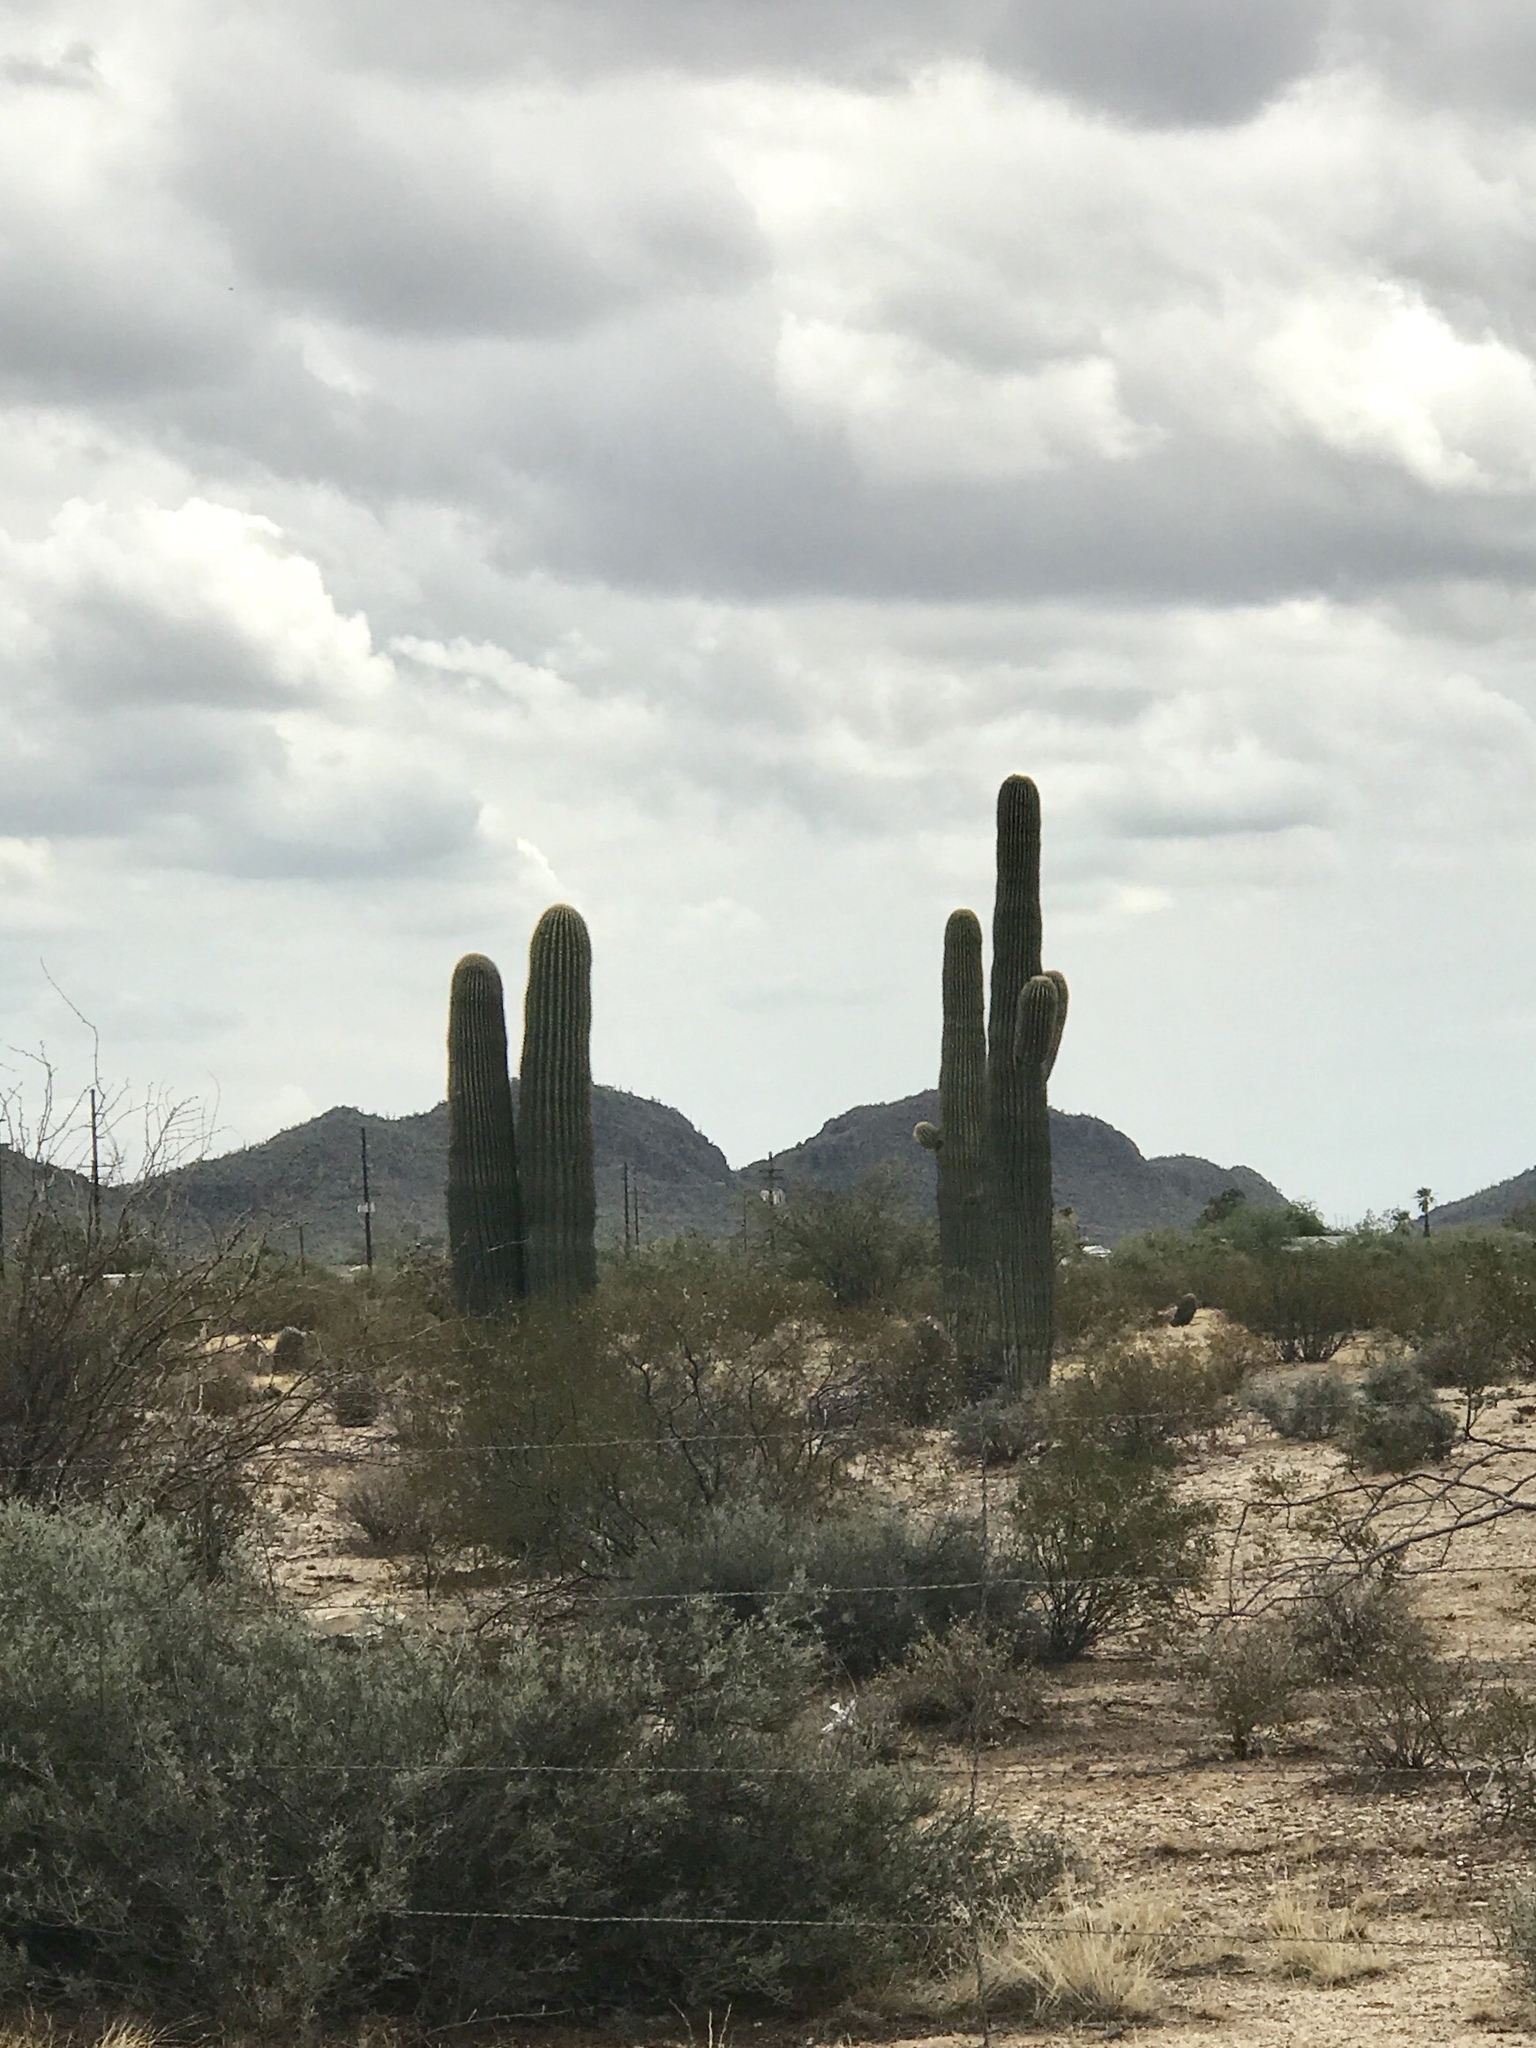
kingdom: Plantae
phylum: Tracheophyta
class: Magnoliopsida
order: Caryophyllales
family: Cactaceae
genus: Carnegiea
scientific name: Carnegiea gigantea
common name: Saguaro
